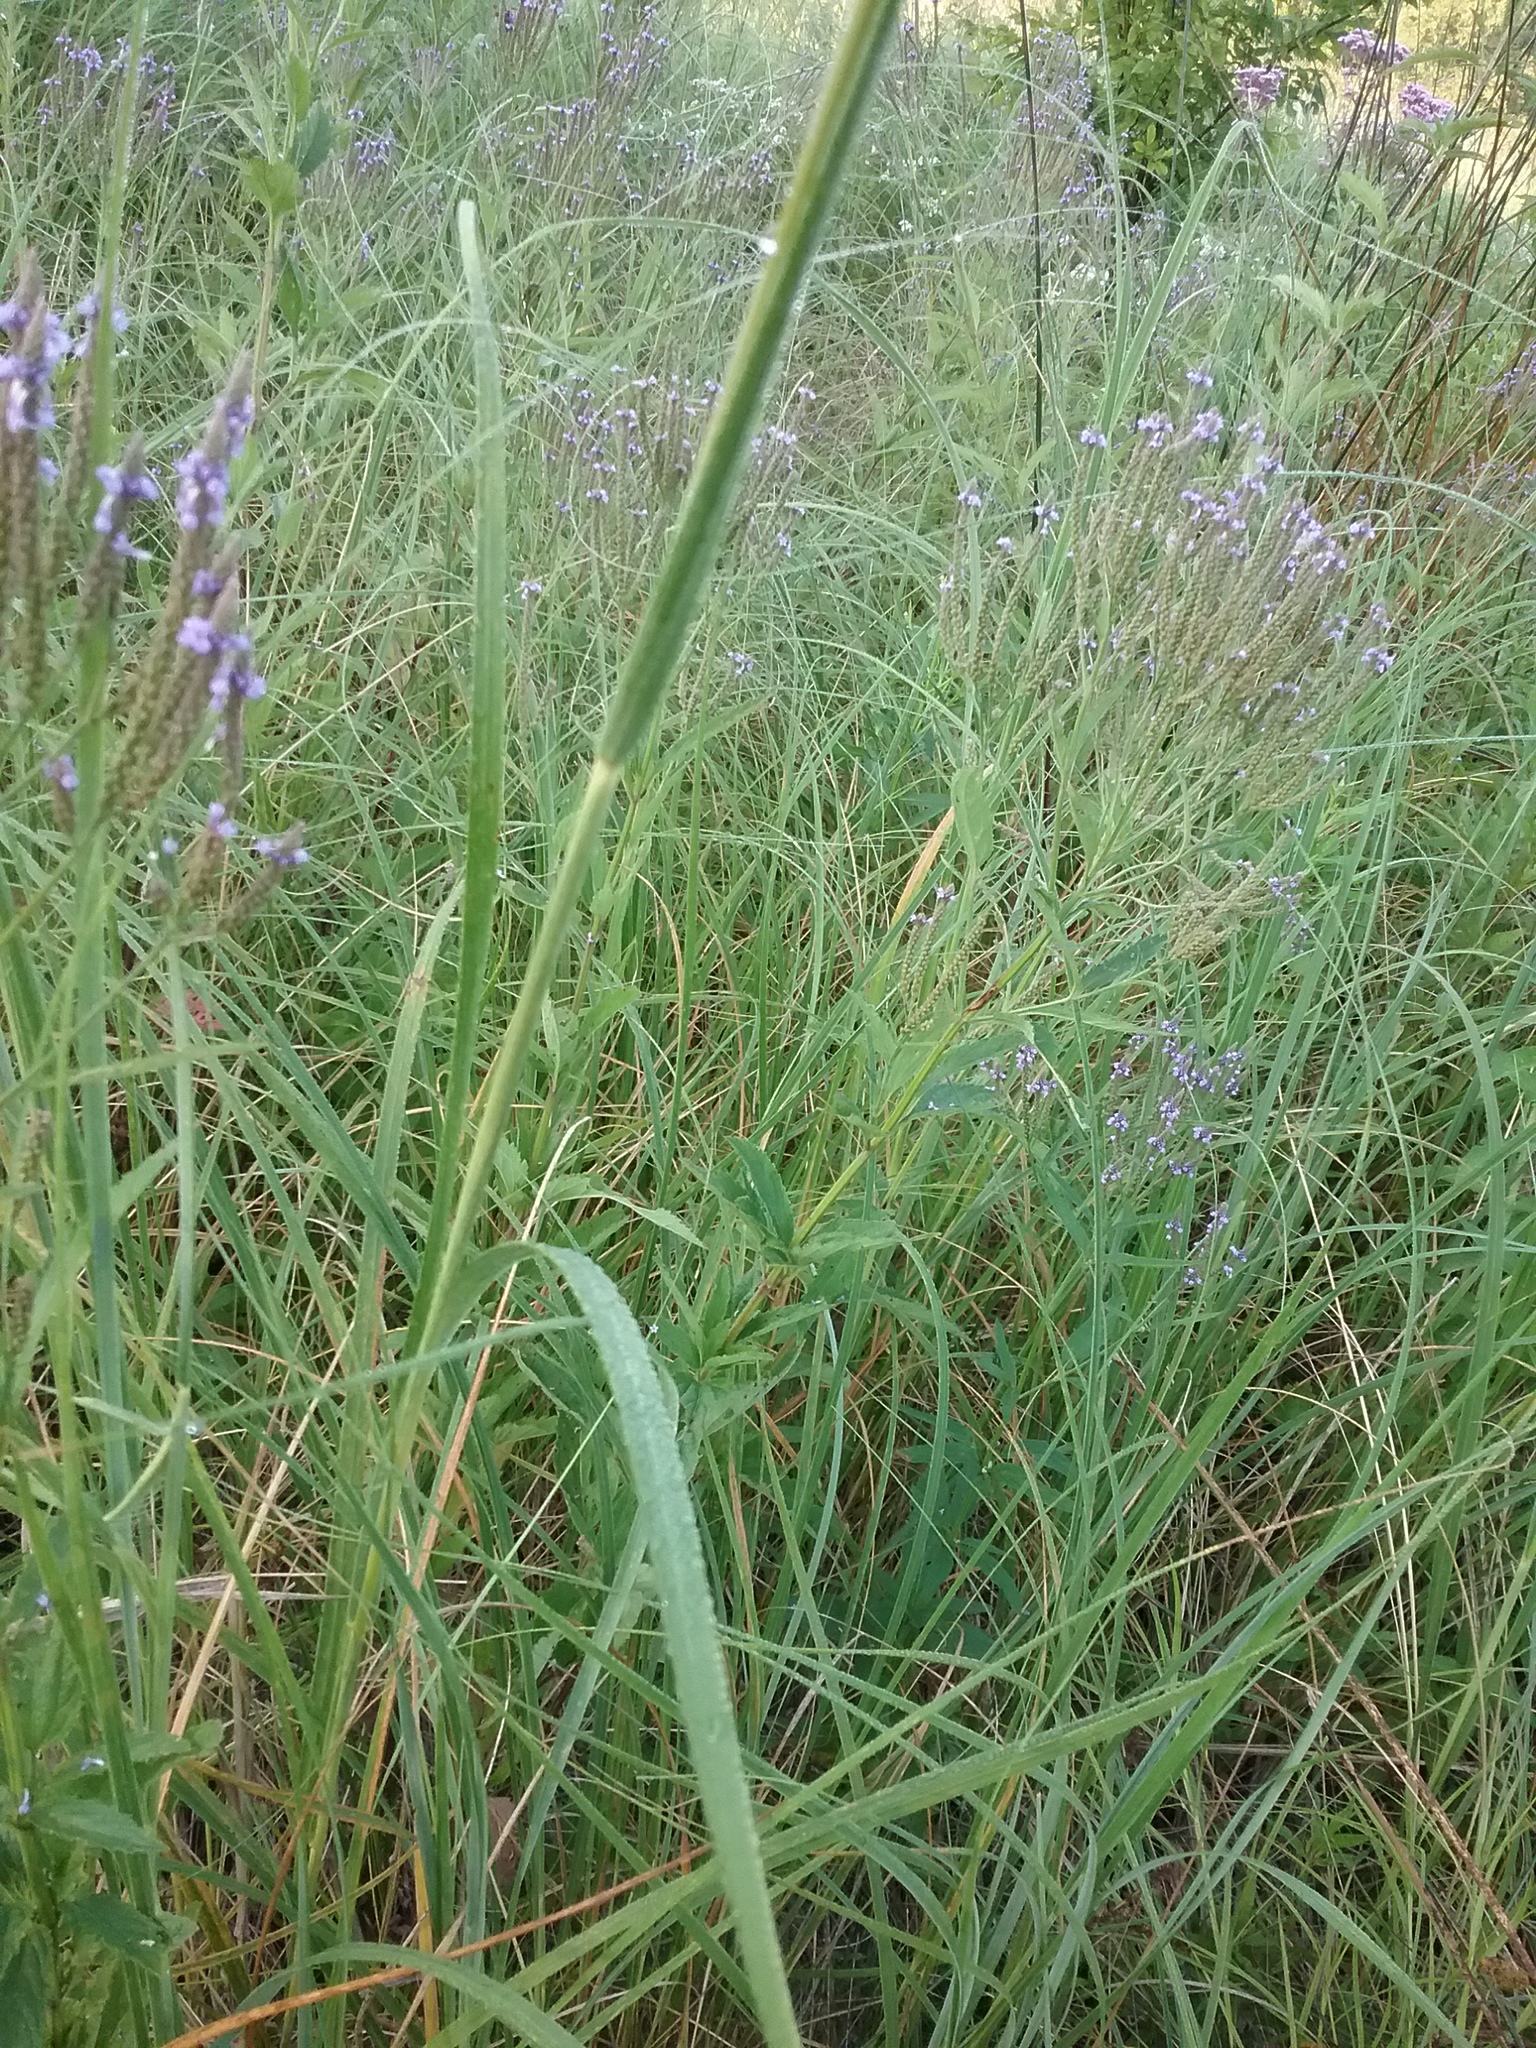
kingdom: Plantae
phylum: Tracheophyta
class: Liliopsida
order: Poales
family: Poaceae
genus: Sporobolus
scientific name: Sporobolus michauxianus
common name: Freshwater cordgrass
